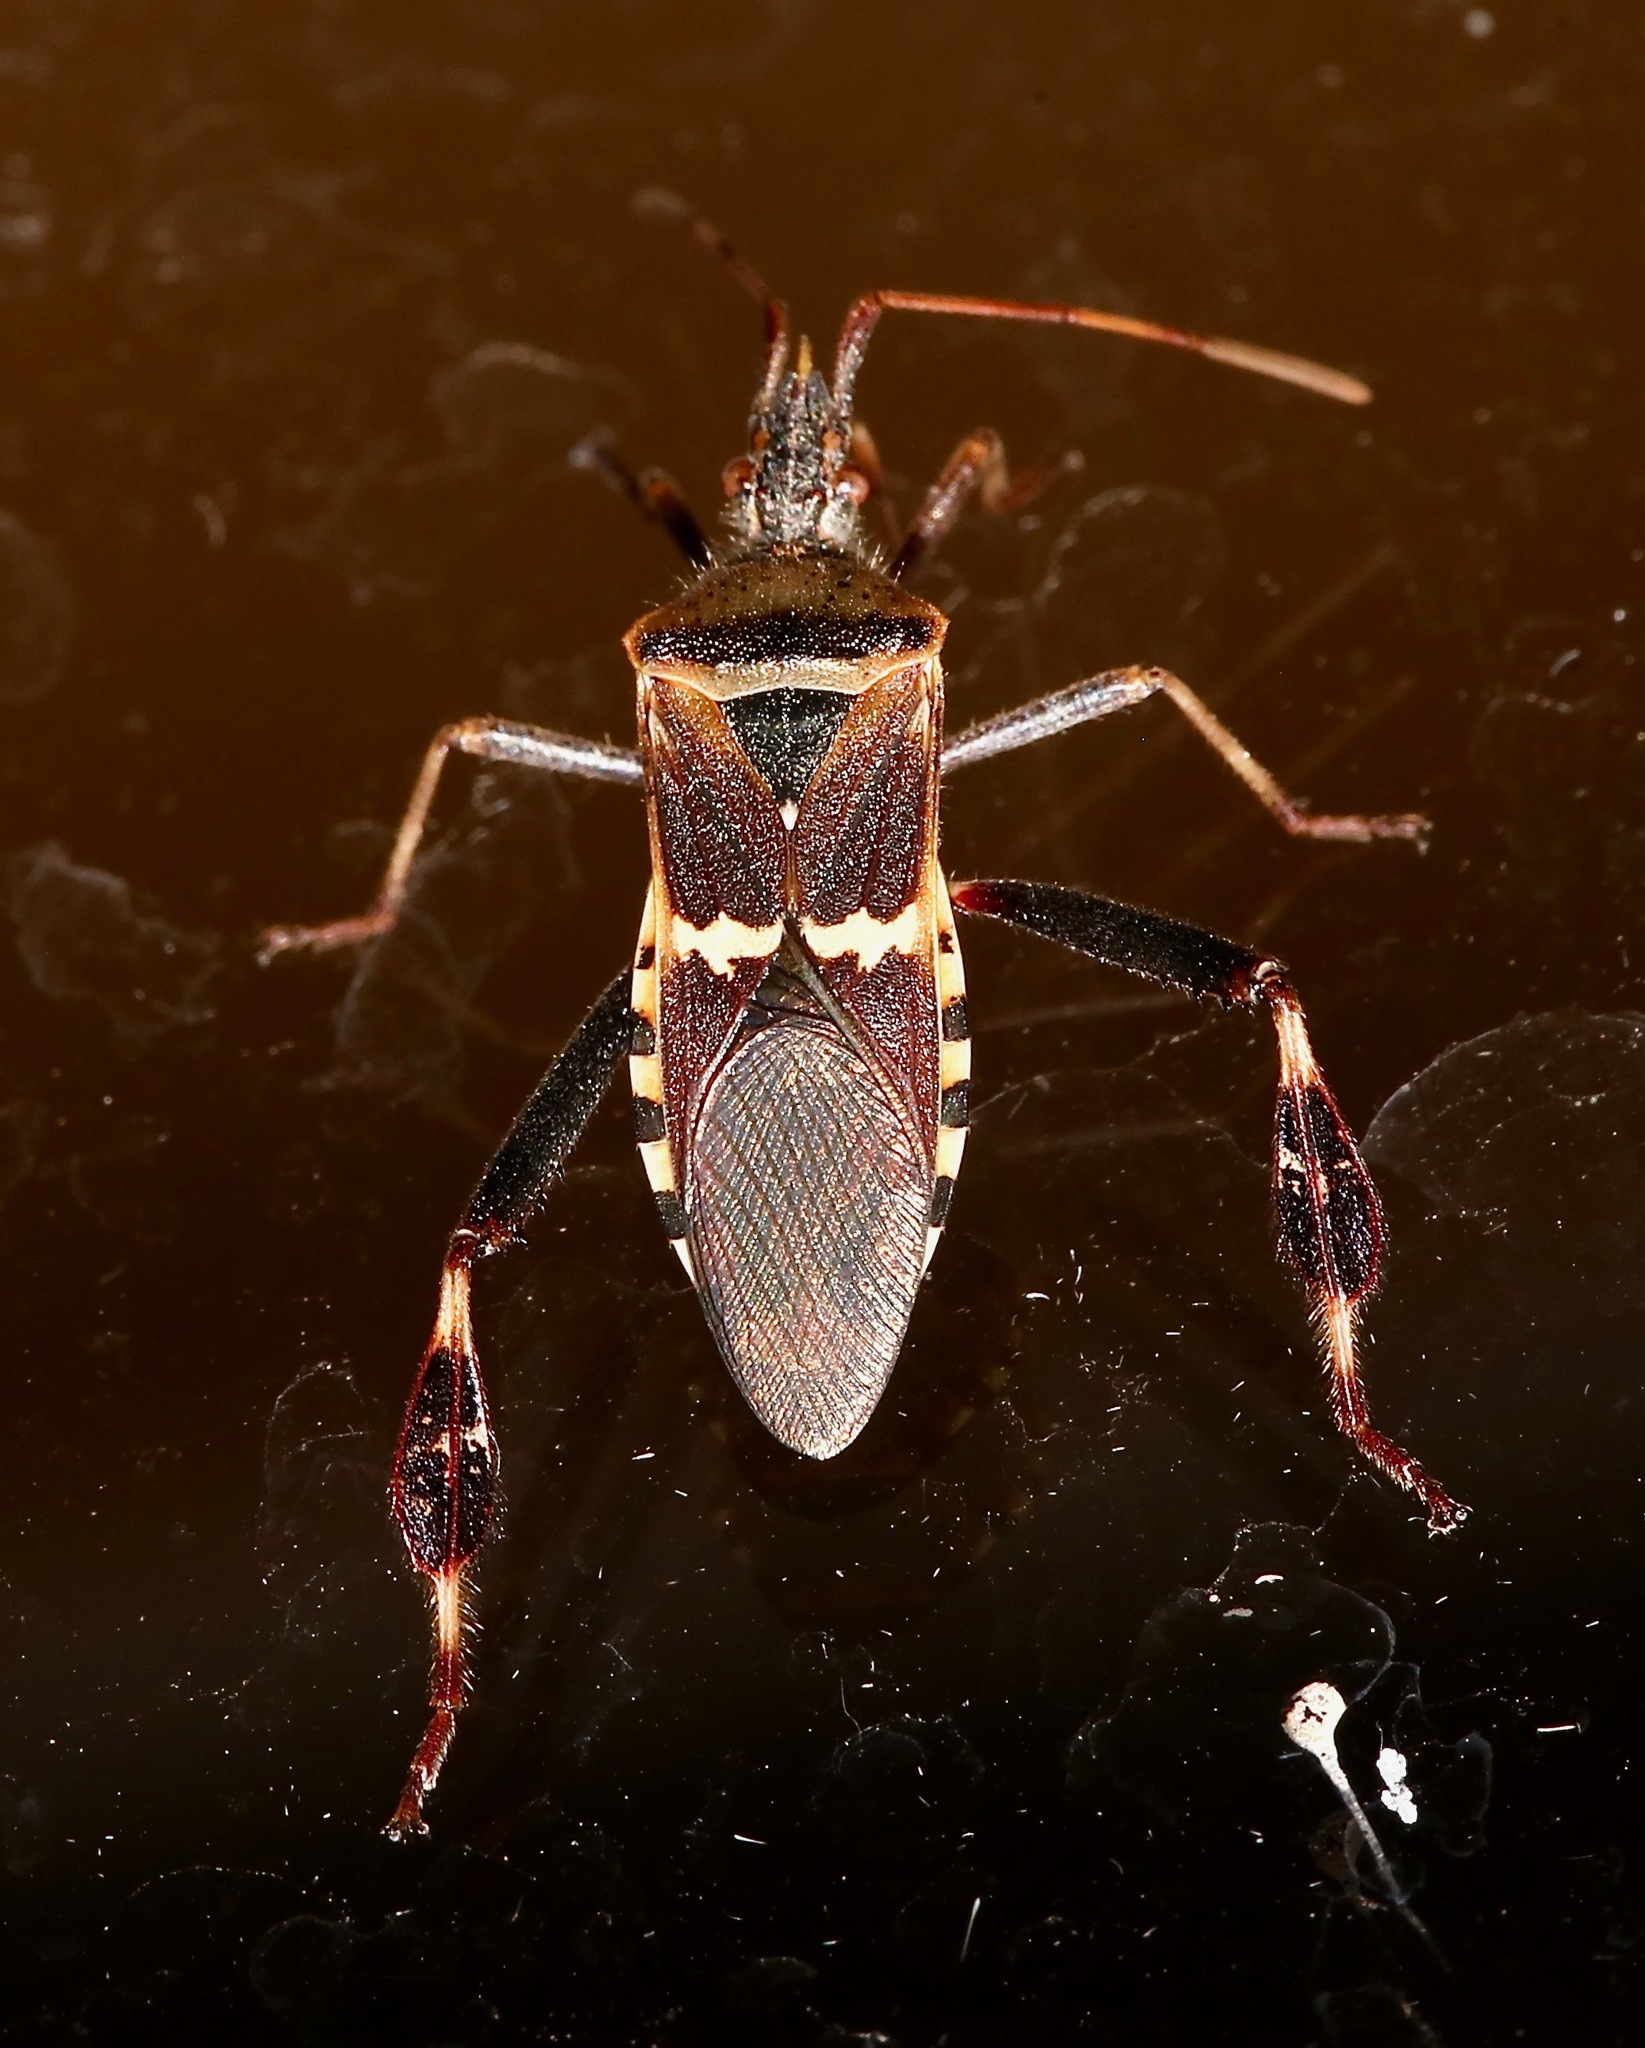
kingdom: Animalia
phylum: Arthropoda
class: Insecta
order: Hemiptera
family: Coreidae
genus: Leptoglossus
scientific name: Leptoglossus clypealis
